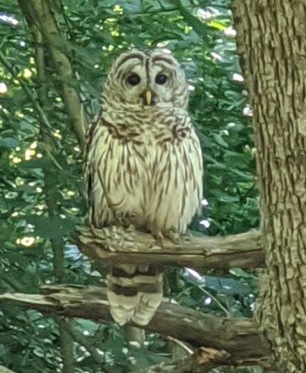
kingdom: Animalia
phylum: Chordata
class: Aves
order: Strigiformes
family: Strigidae
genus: Strix
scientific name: Strix varia
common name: Barred owl
